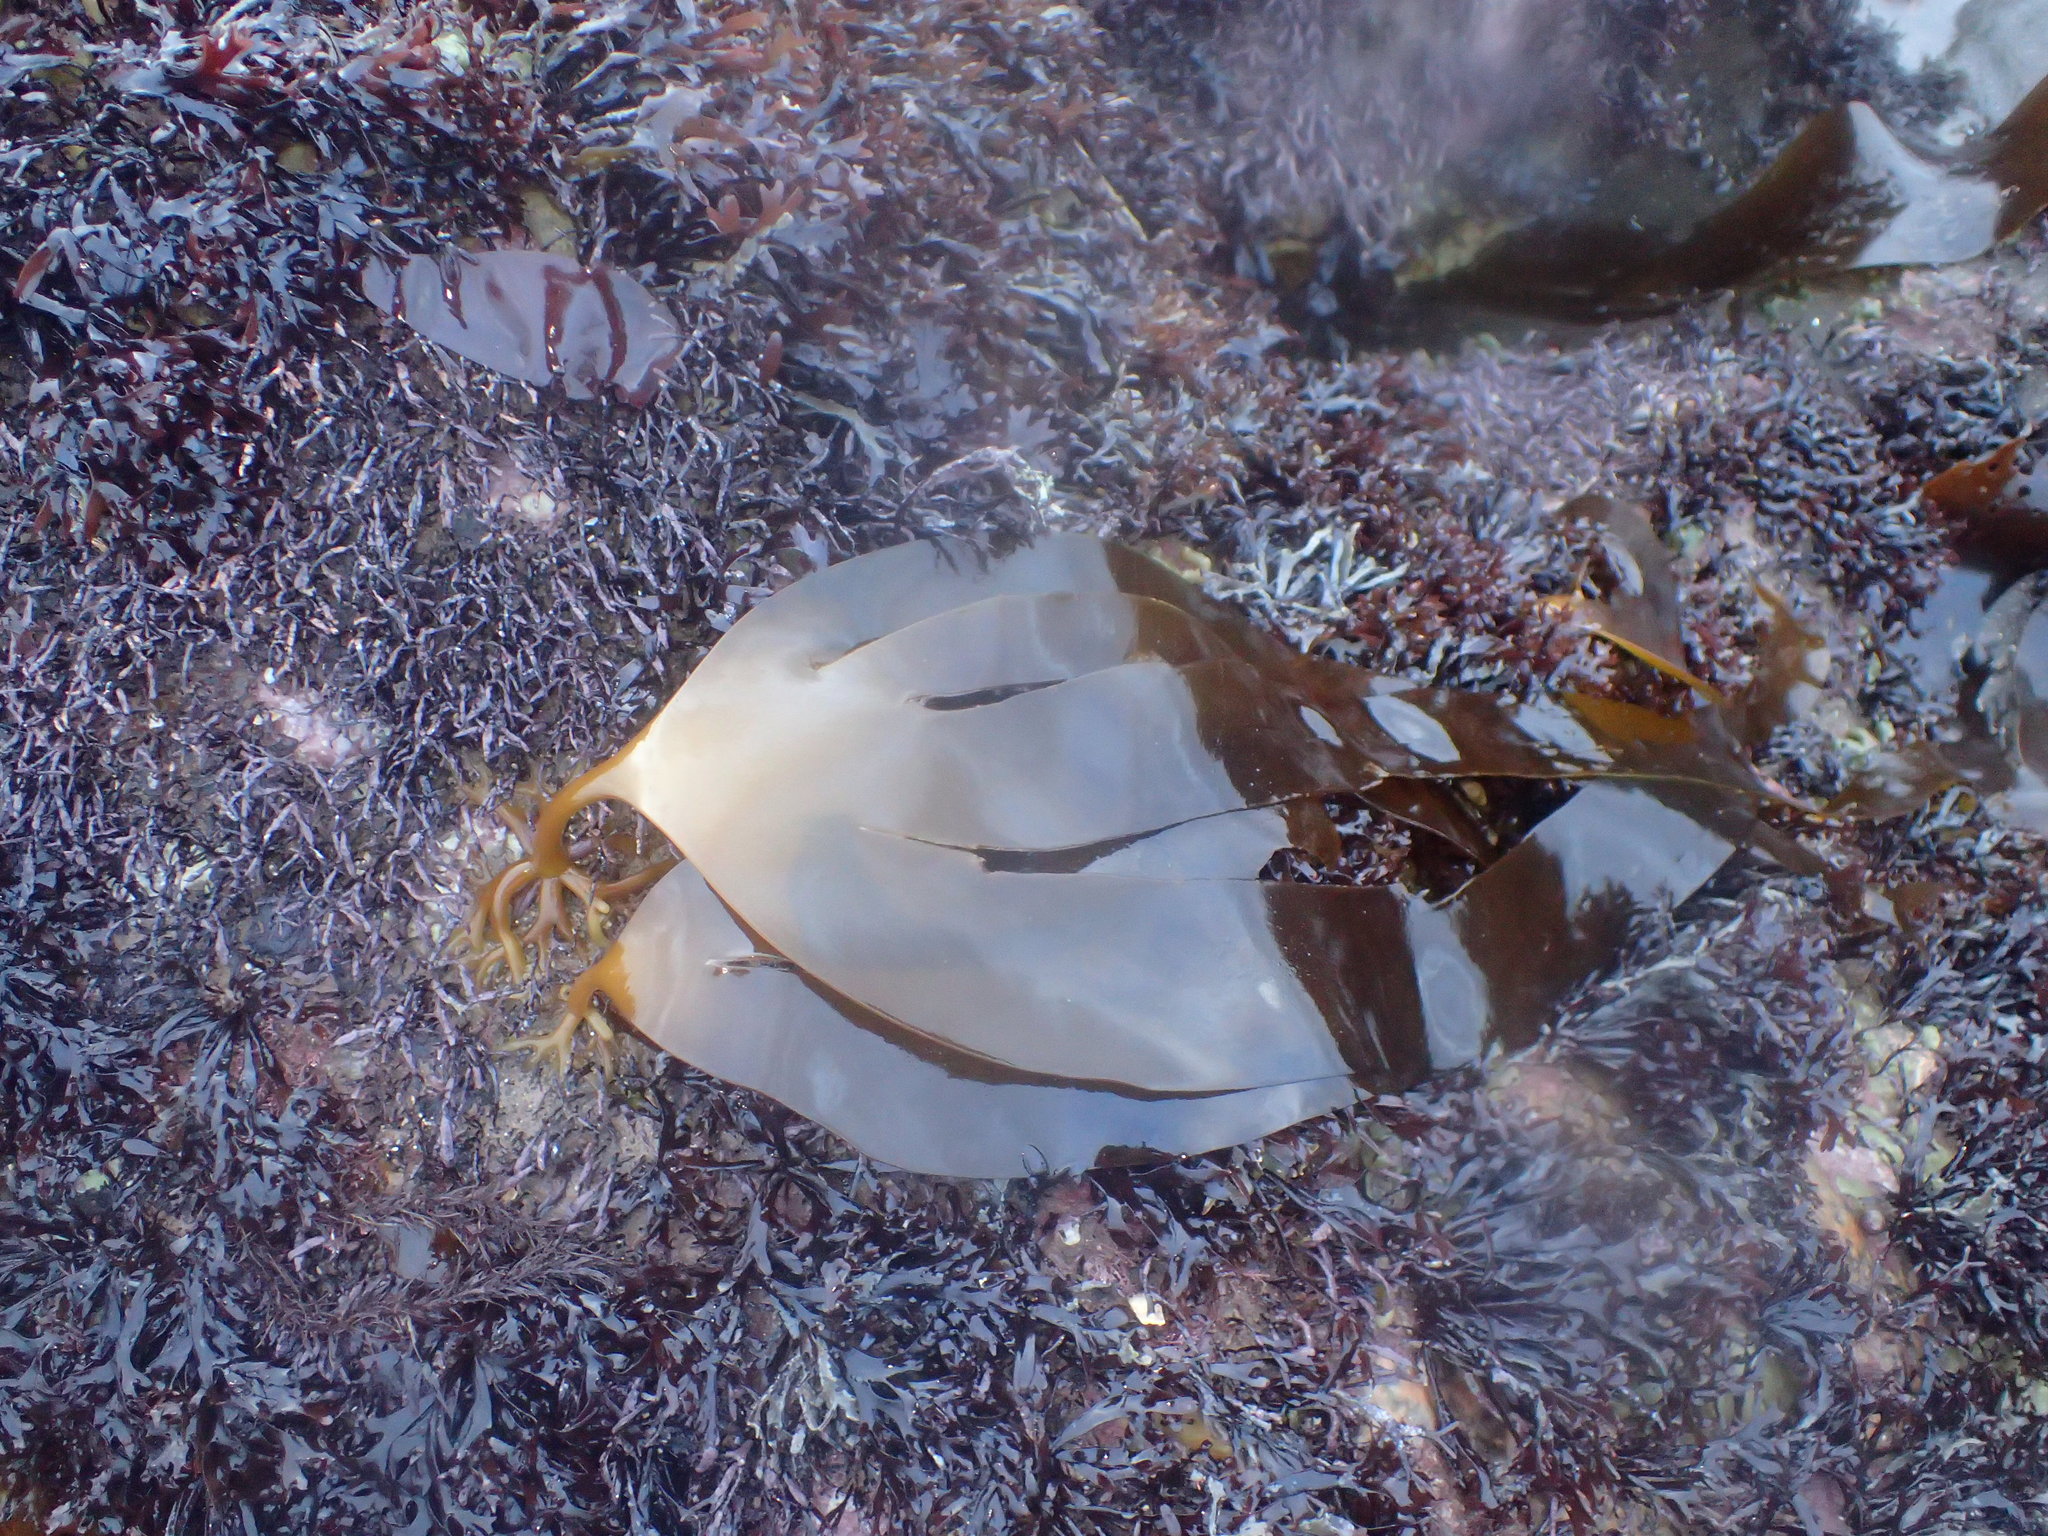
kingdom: Chromista
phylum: Ochrophyta
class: Phaeophyceae
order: Laminariales
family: Laminariaceae
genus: Laminaria
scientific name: Laminaria digitata
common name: Oarweed
